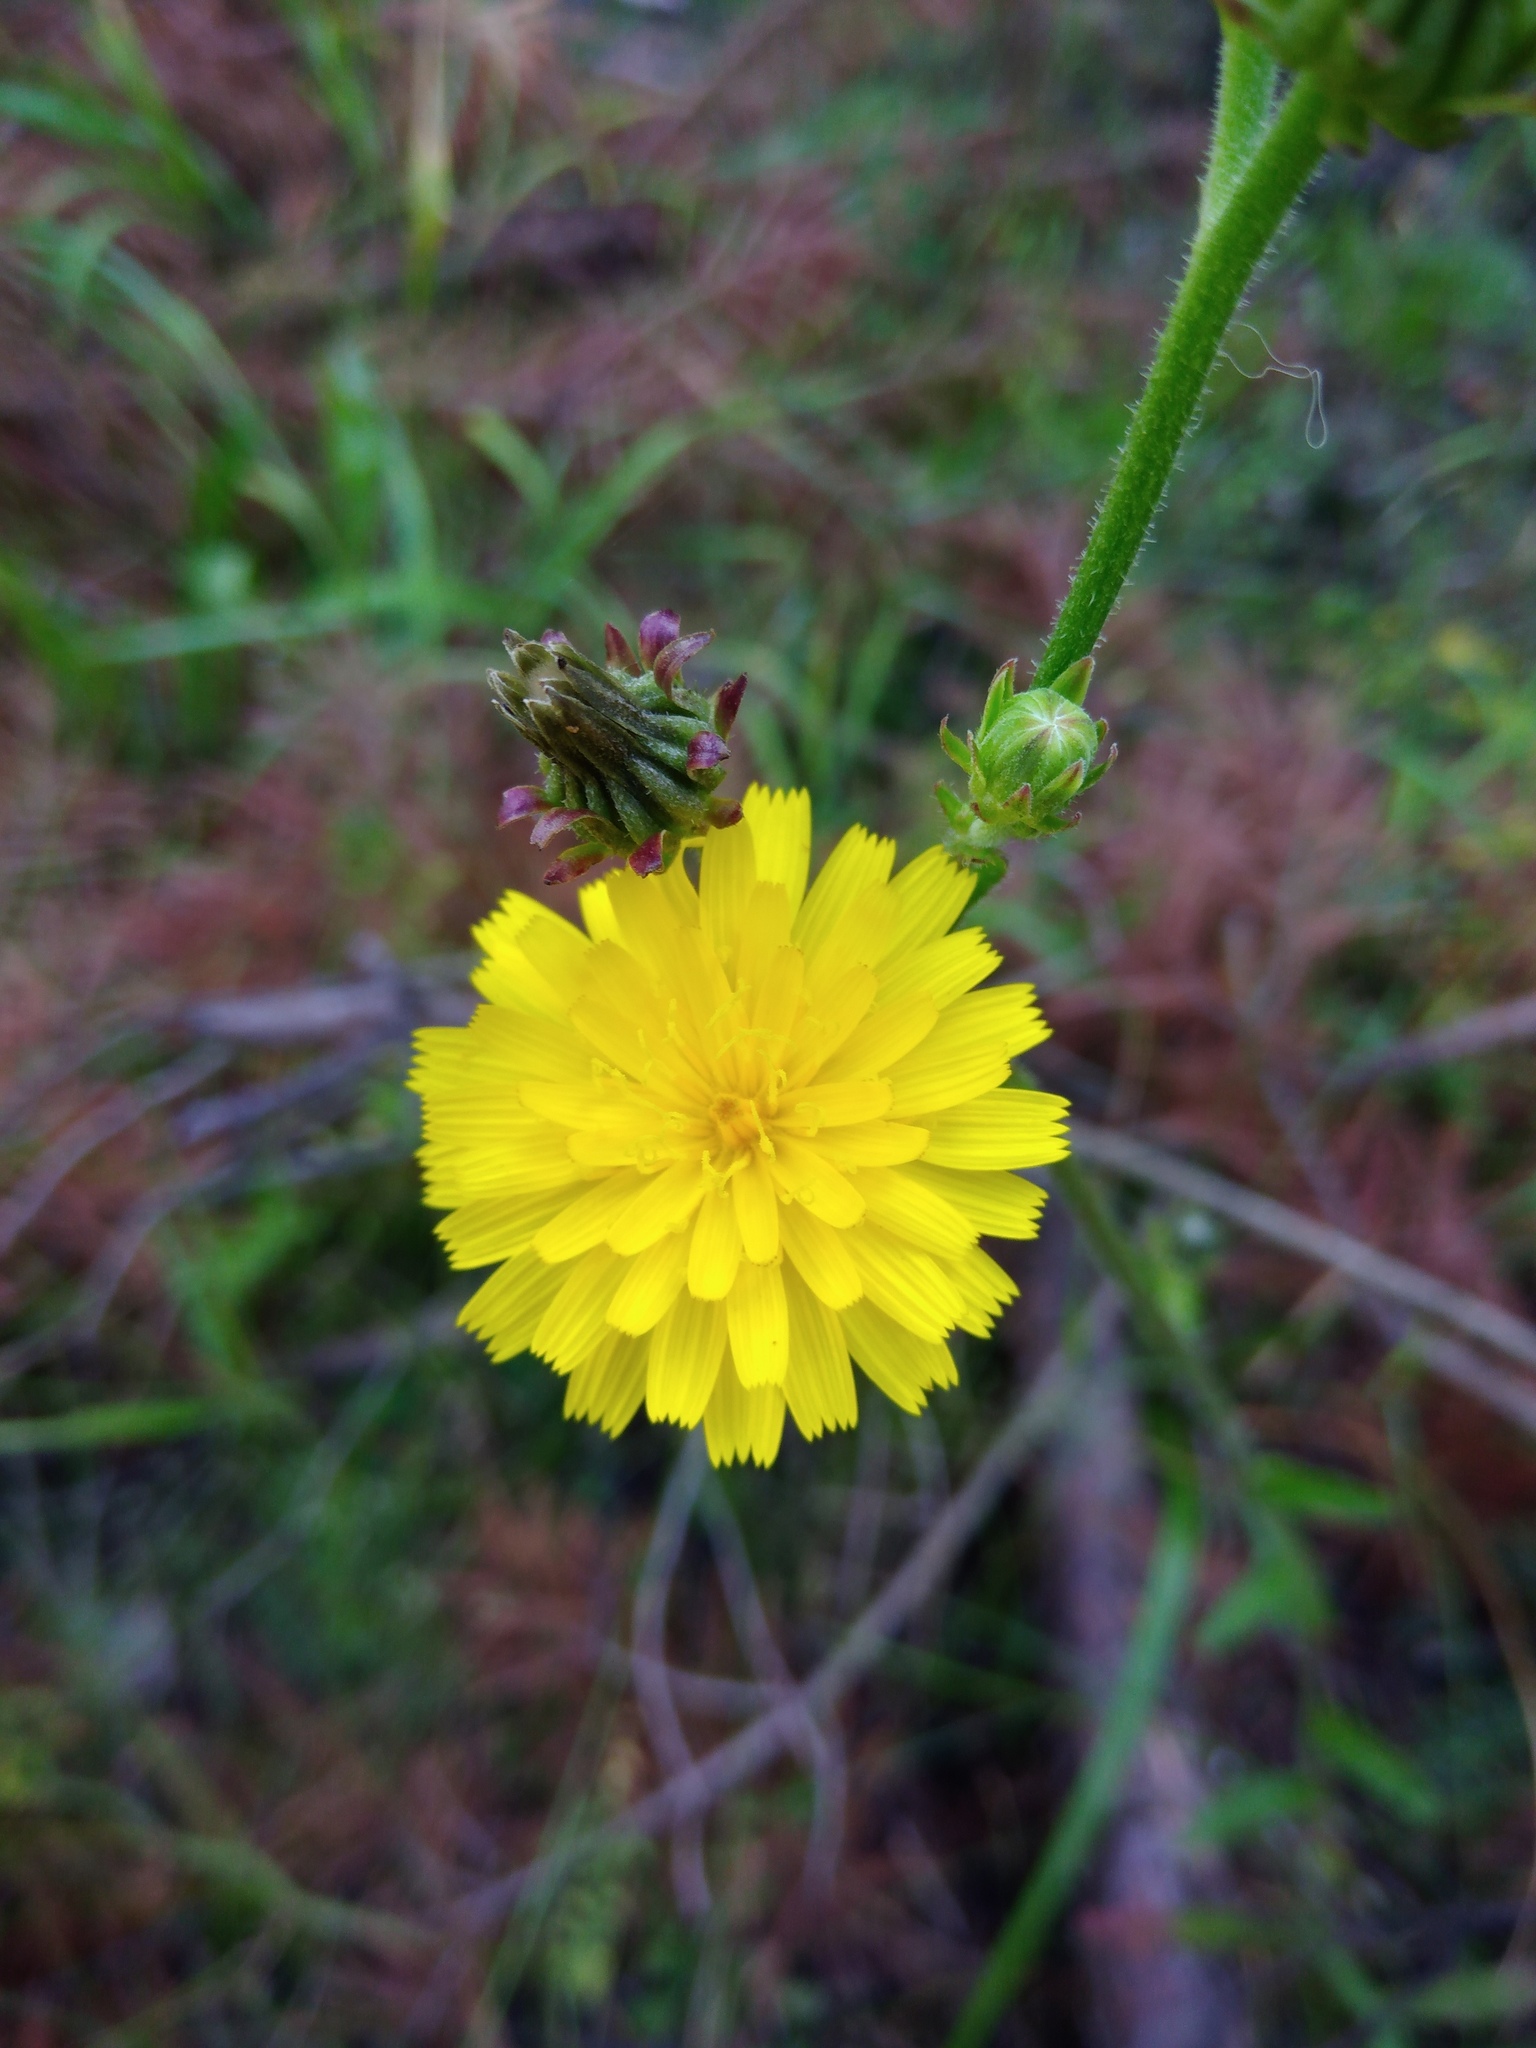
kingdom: Plantae
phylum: Tracheophyta
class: Magnoliopsida
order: Asterales
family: Asteraceae
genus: Picris
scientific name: Picris hieracioides
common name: Hawkweed oxtongue
